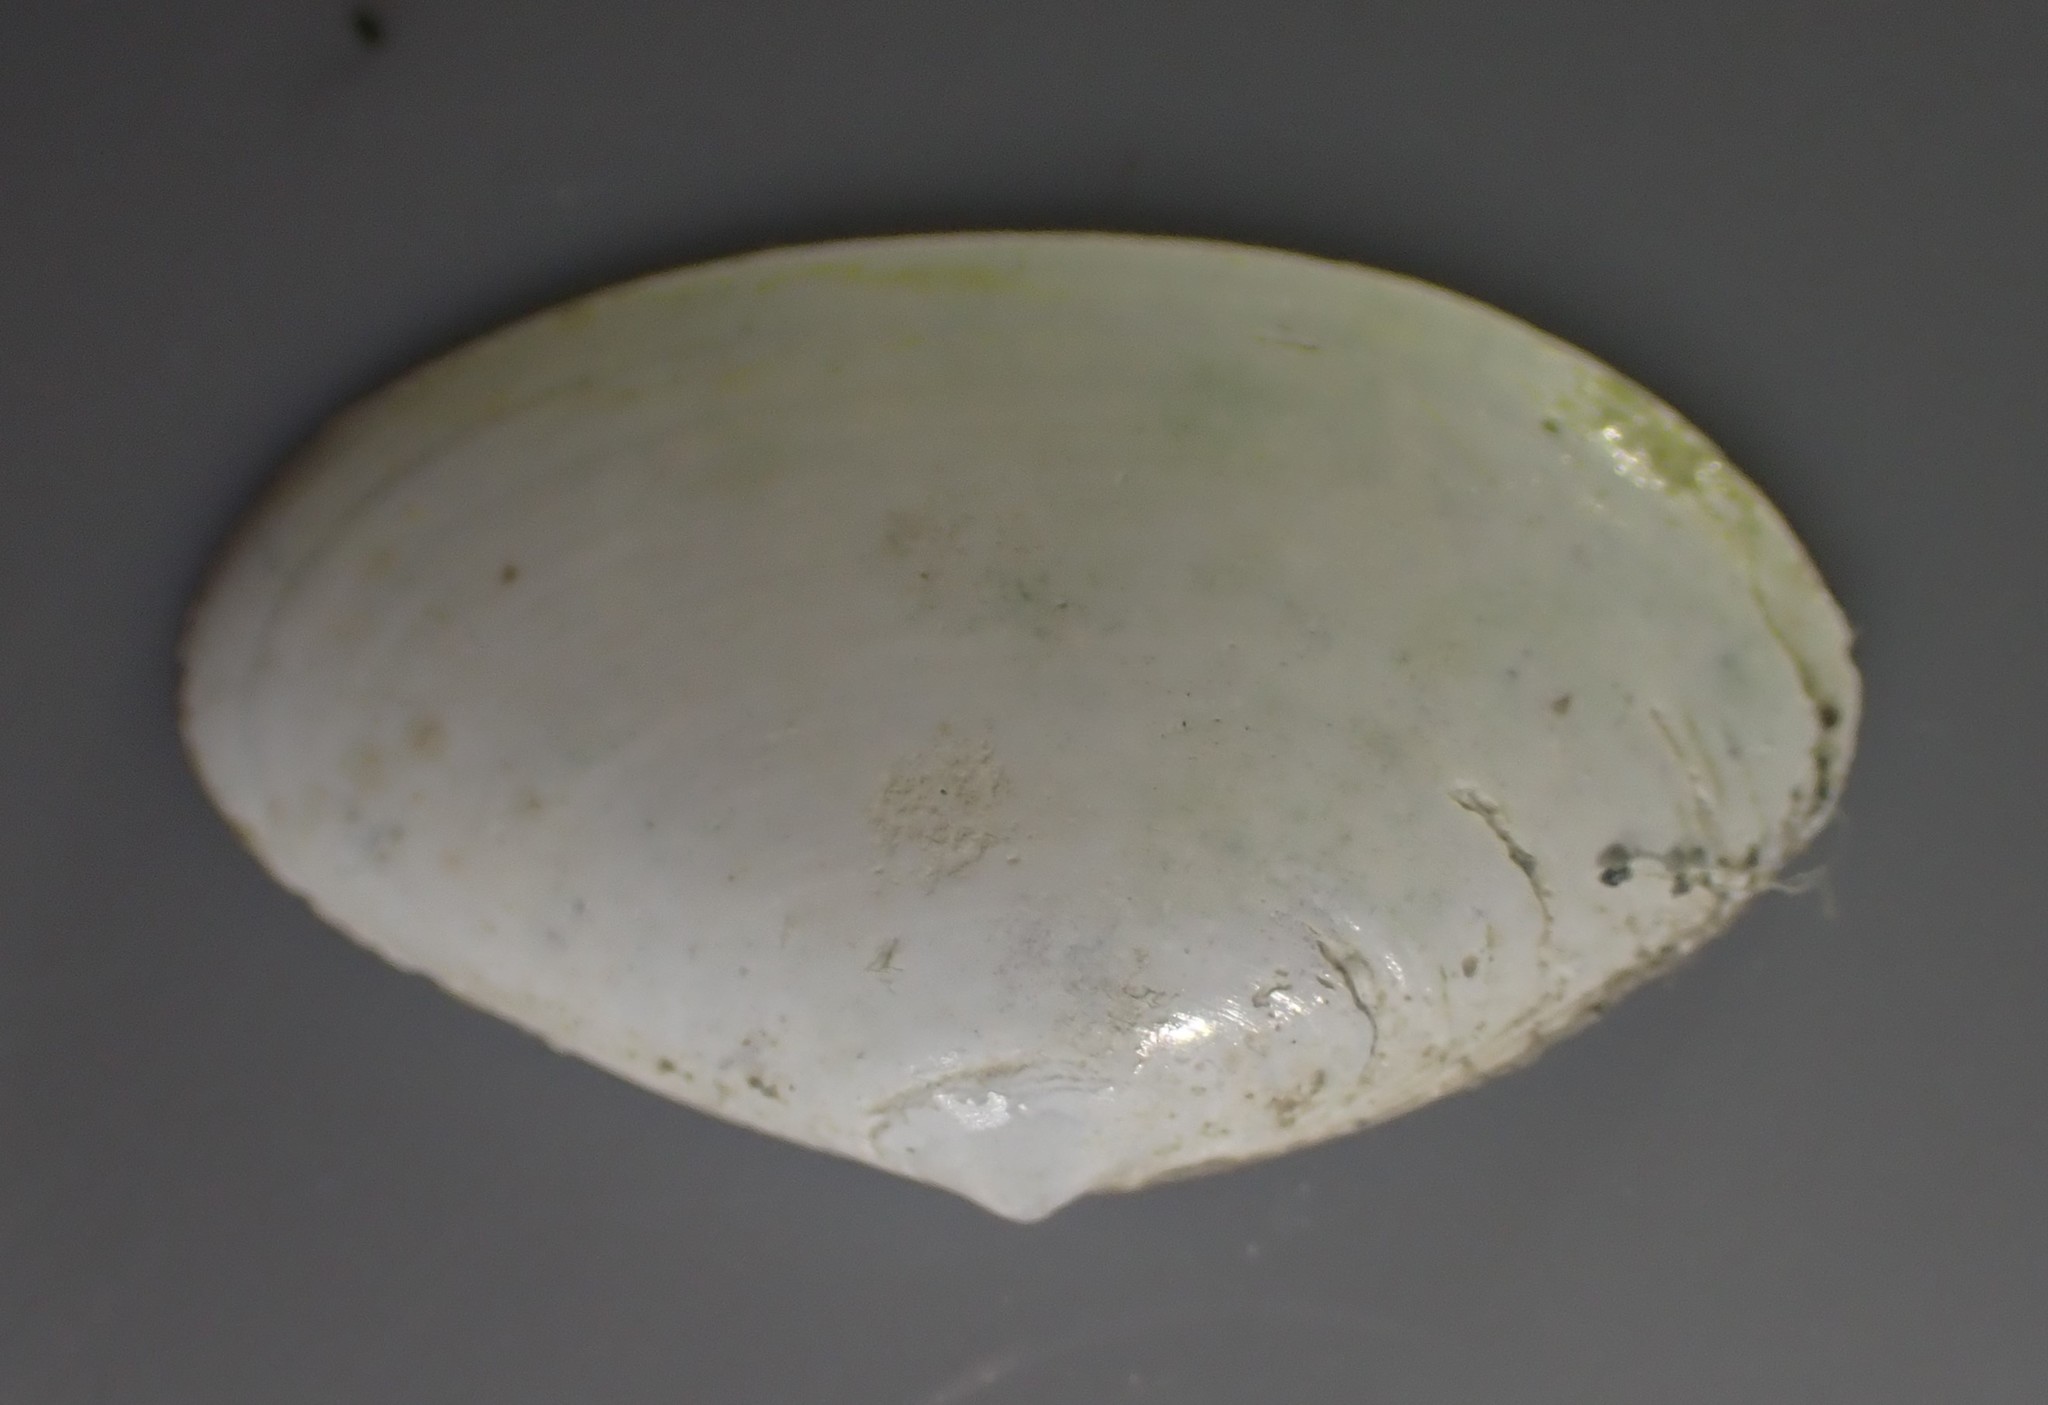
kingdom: Animalia
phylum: Mollusca
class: Bivalvia
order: Venerida
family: Mactridae
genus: Scalpomactra
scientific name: Scalpomactra scalpellum
